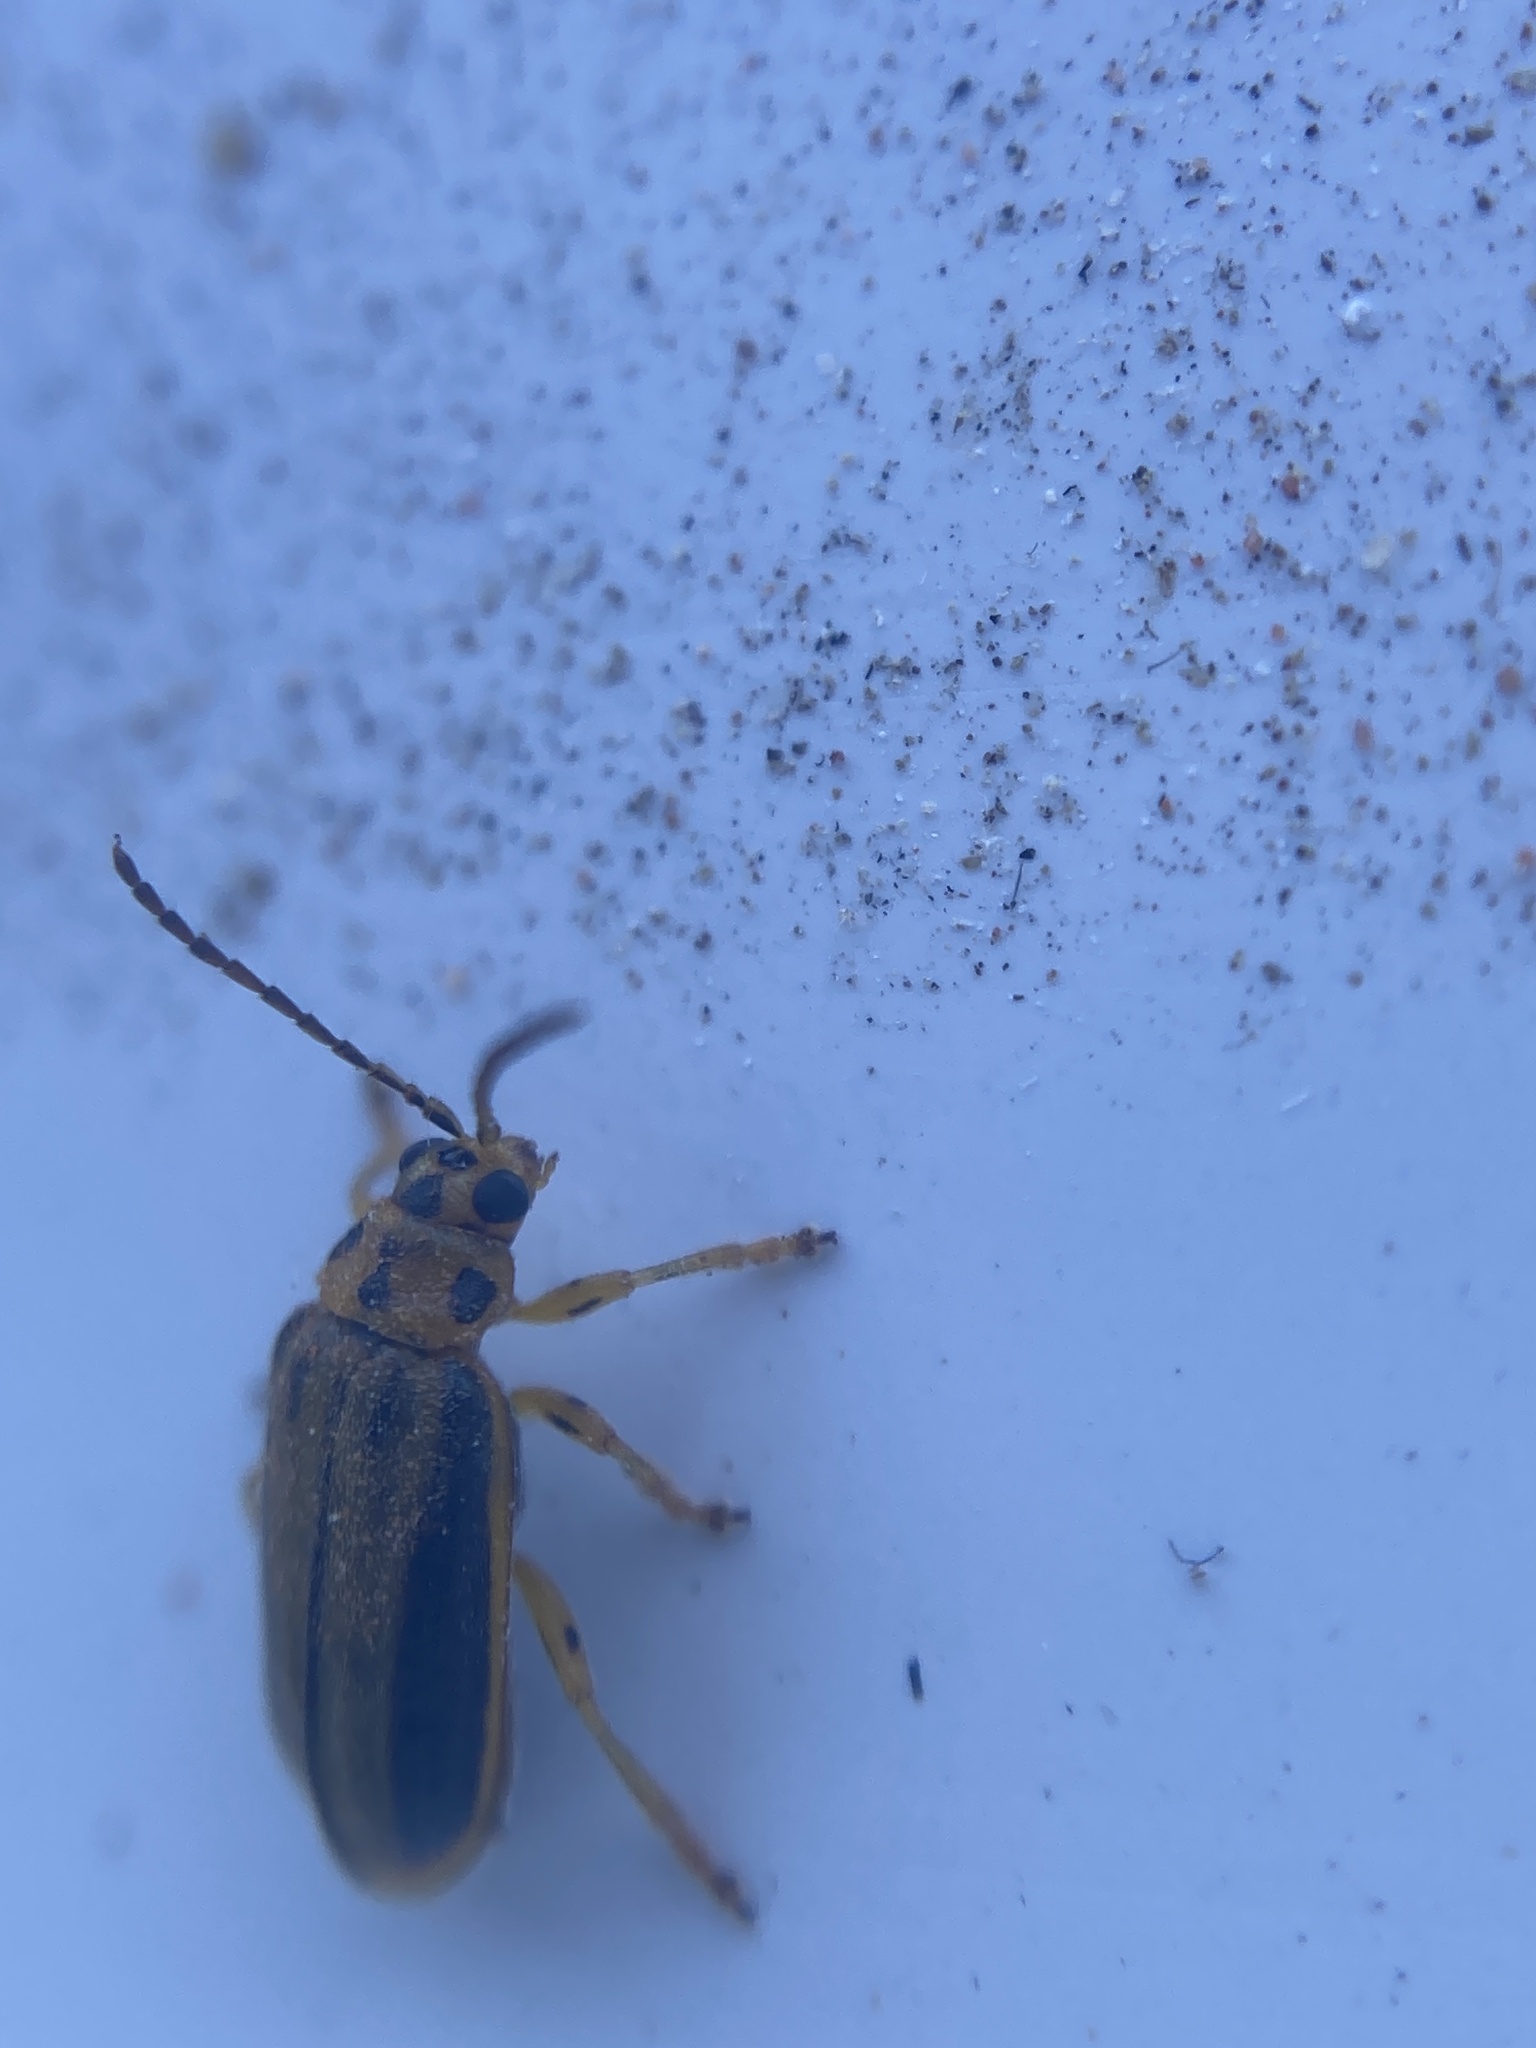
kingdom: Animalia
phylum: Arthropoda
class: Insecta
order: Coleoptera
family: Chrysomelidae
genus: Xanthogaleruca
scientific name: Xanthogaleruca luteola
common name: Elm leaf beetle
